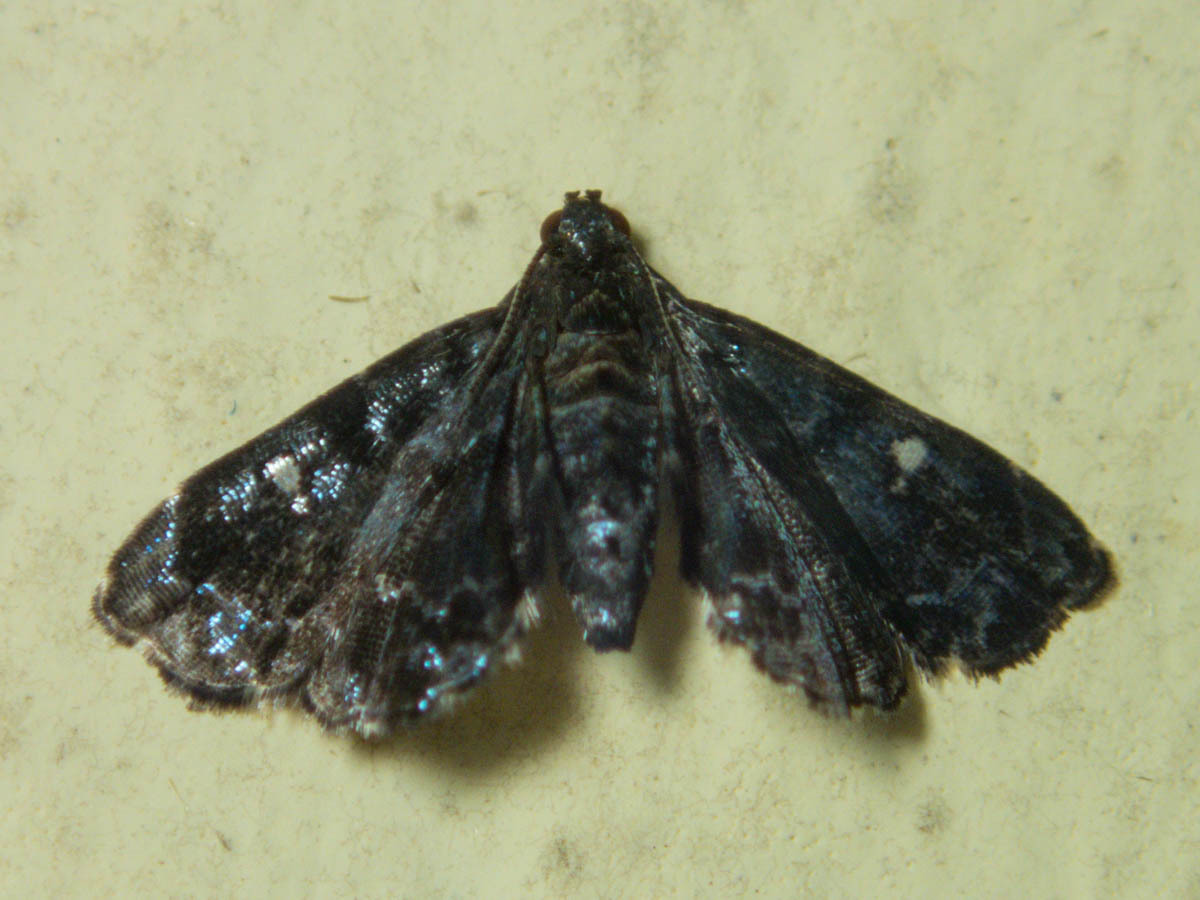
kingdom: Animalia
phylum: Arthropoda
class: Insecta
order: Lepidoptera
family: Pyralidae
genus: Drosophantis
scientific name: Drosophantis caeruleata
